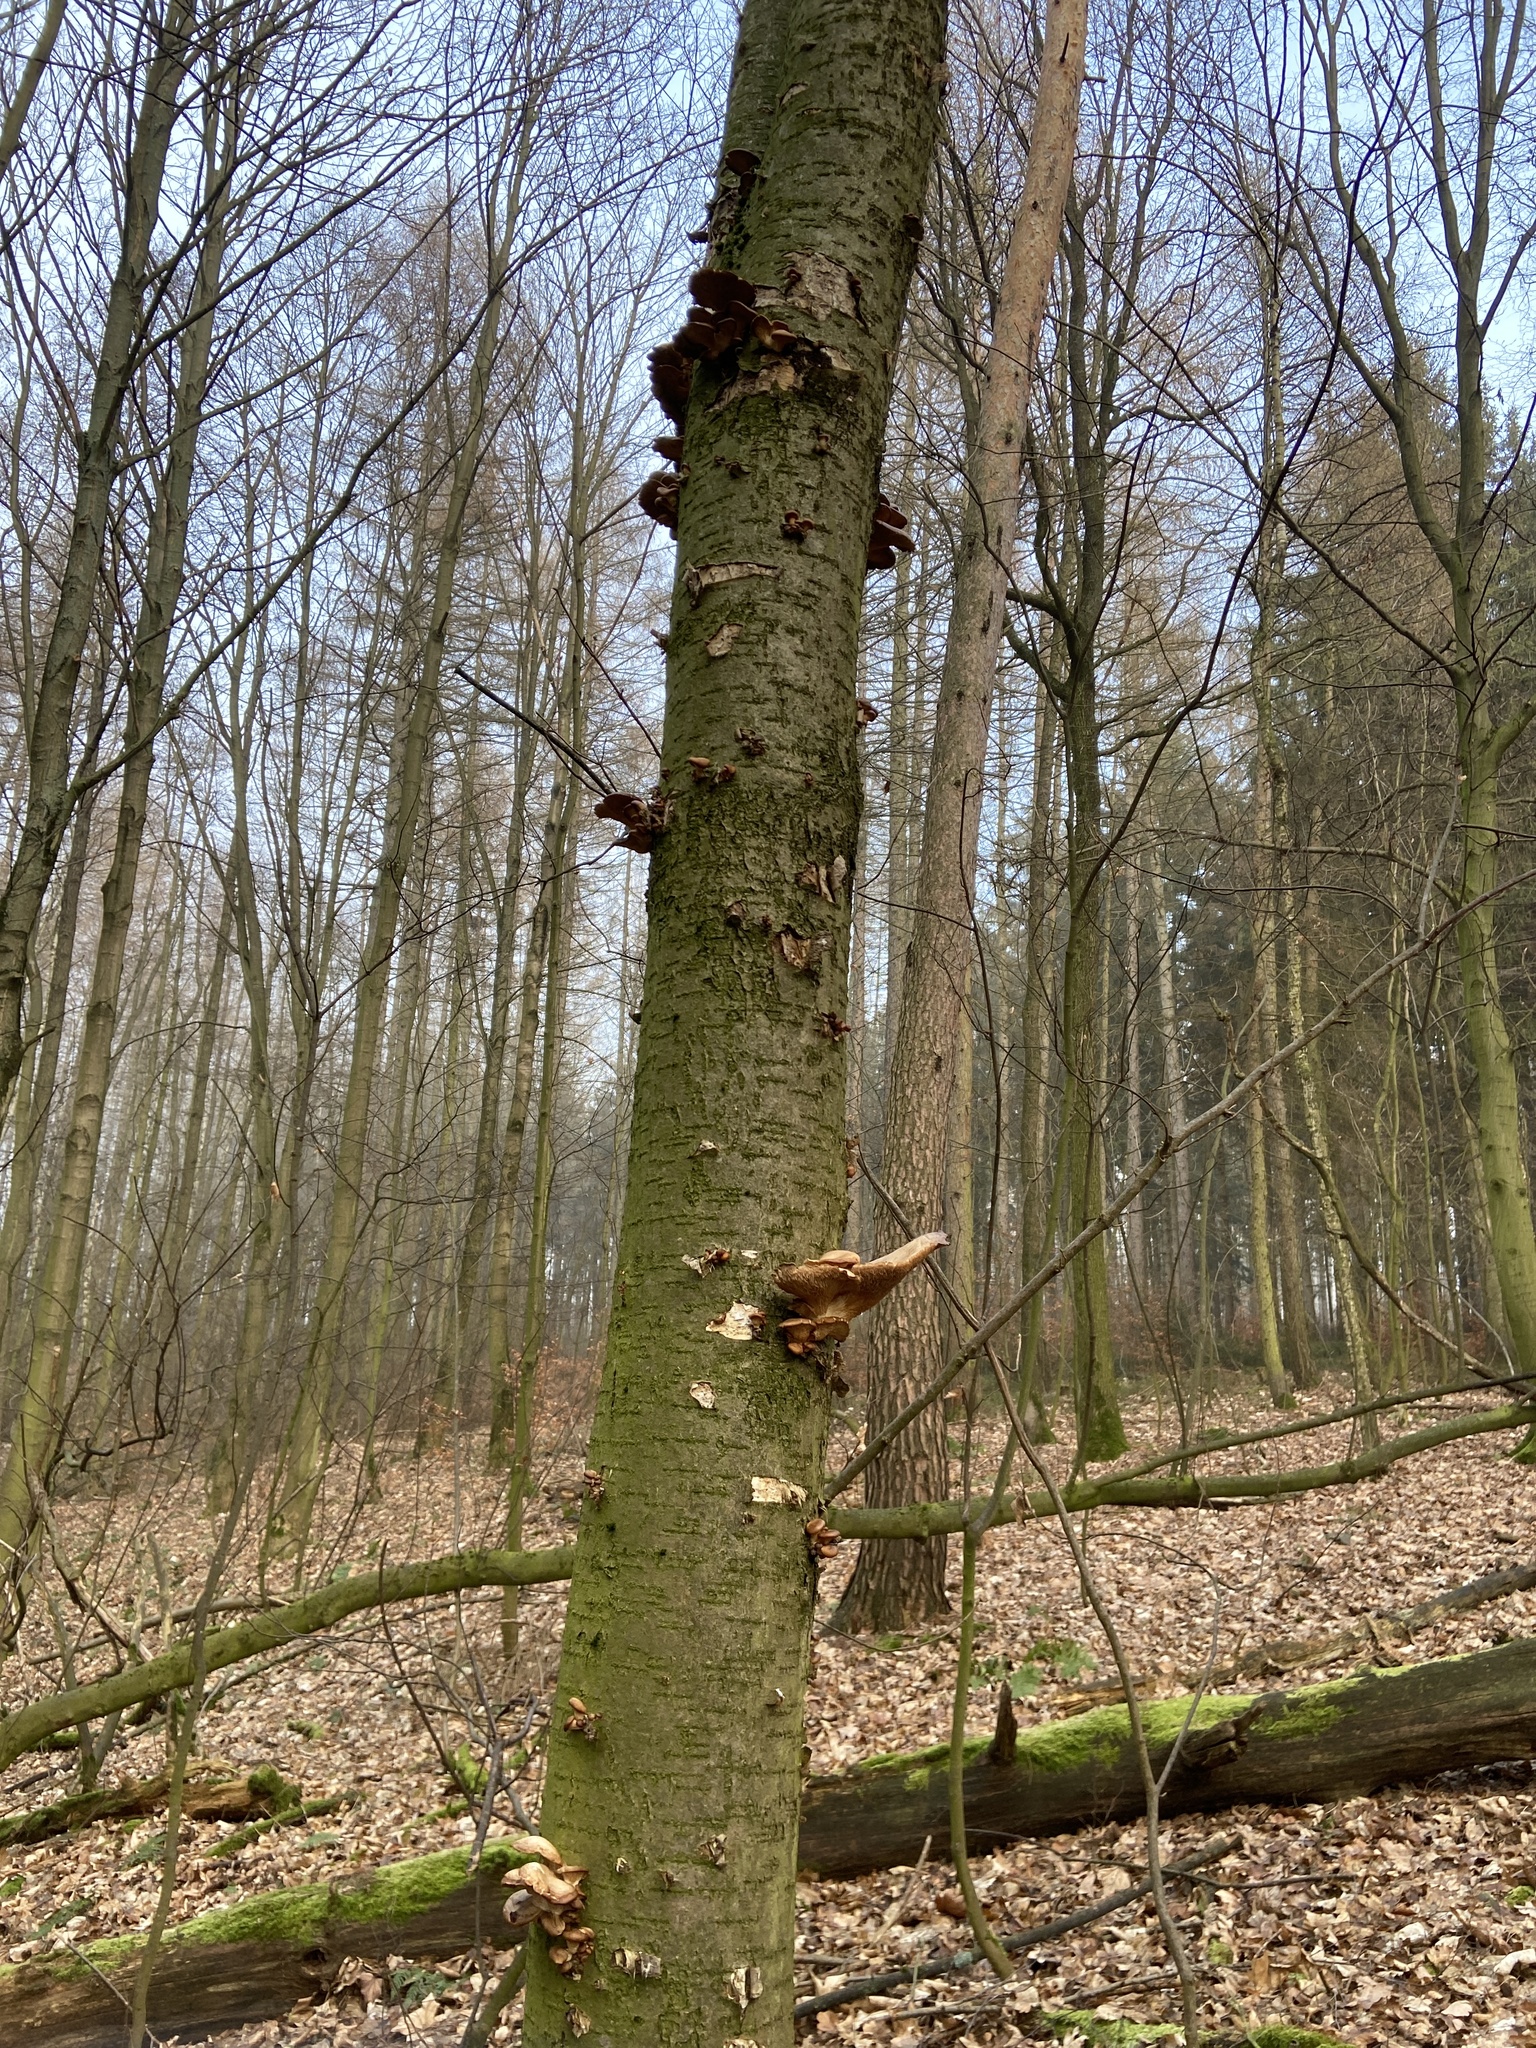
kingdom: Fungi
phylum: Basidiomycota
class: Agaricomycetes
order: Agaricales
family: Pleurotaceae
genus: Pleurotus
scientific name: Pleurotus ostreatus
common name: Oyster mushroom
